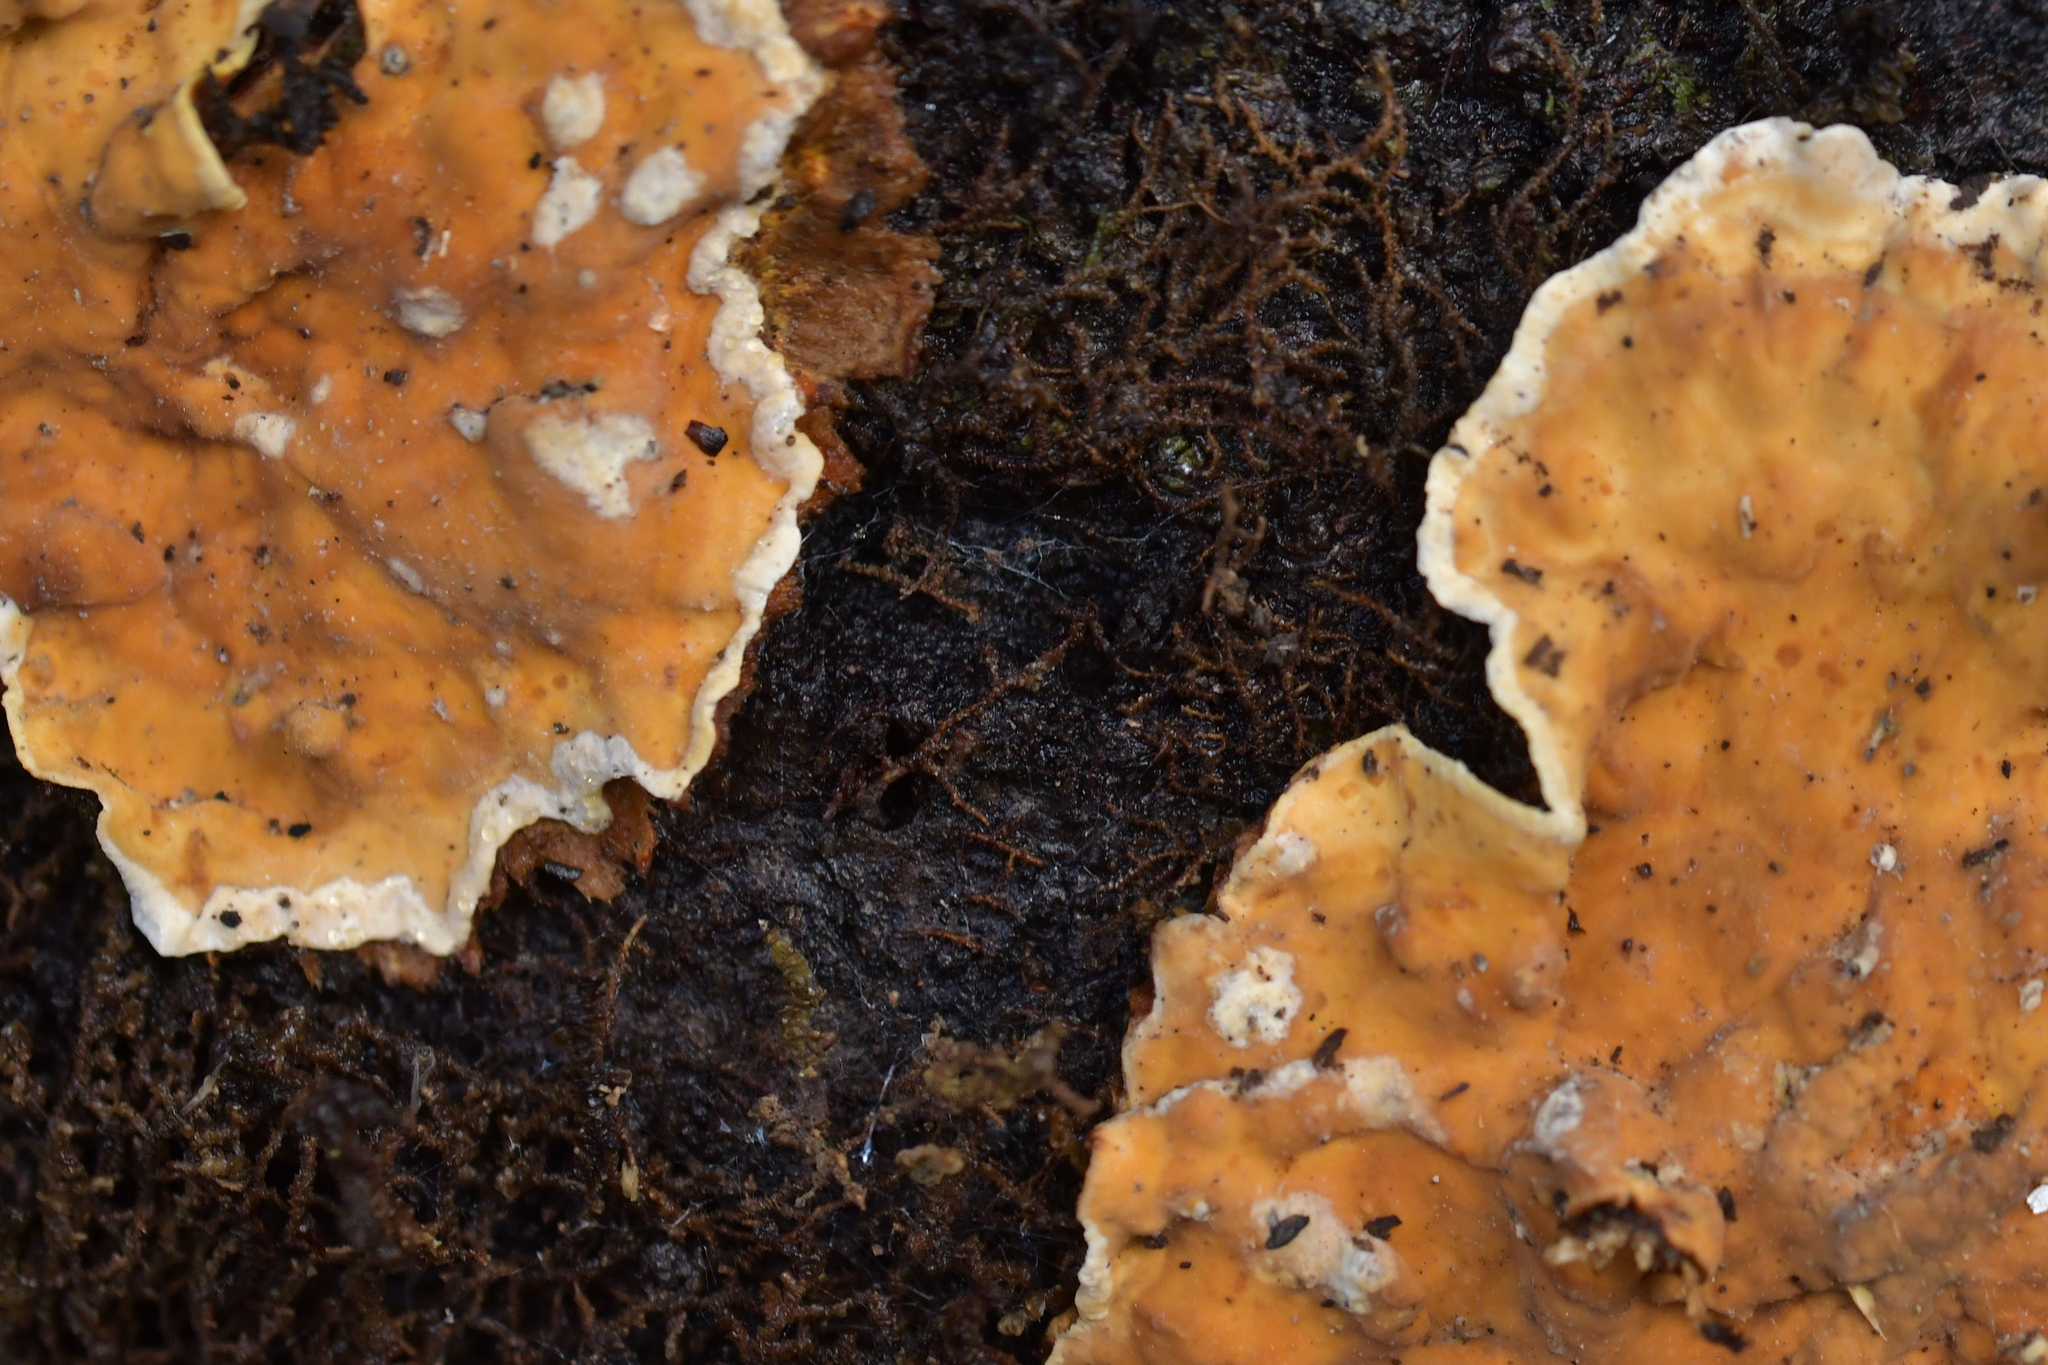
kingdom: Fungi
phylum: Basidiomycota
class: Agaricomycetes
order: Russulales
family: Stereaceae
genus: Stereum
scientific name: Stereum ostrea
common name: False turkeytail
